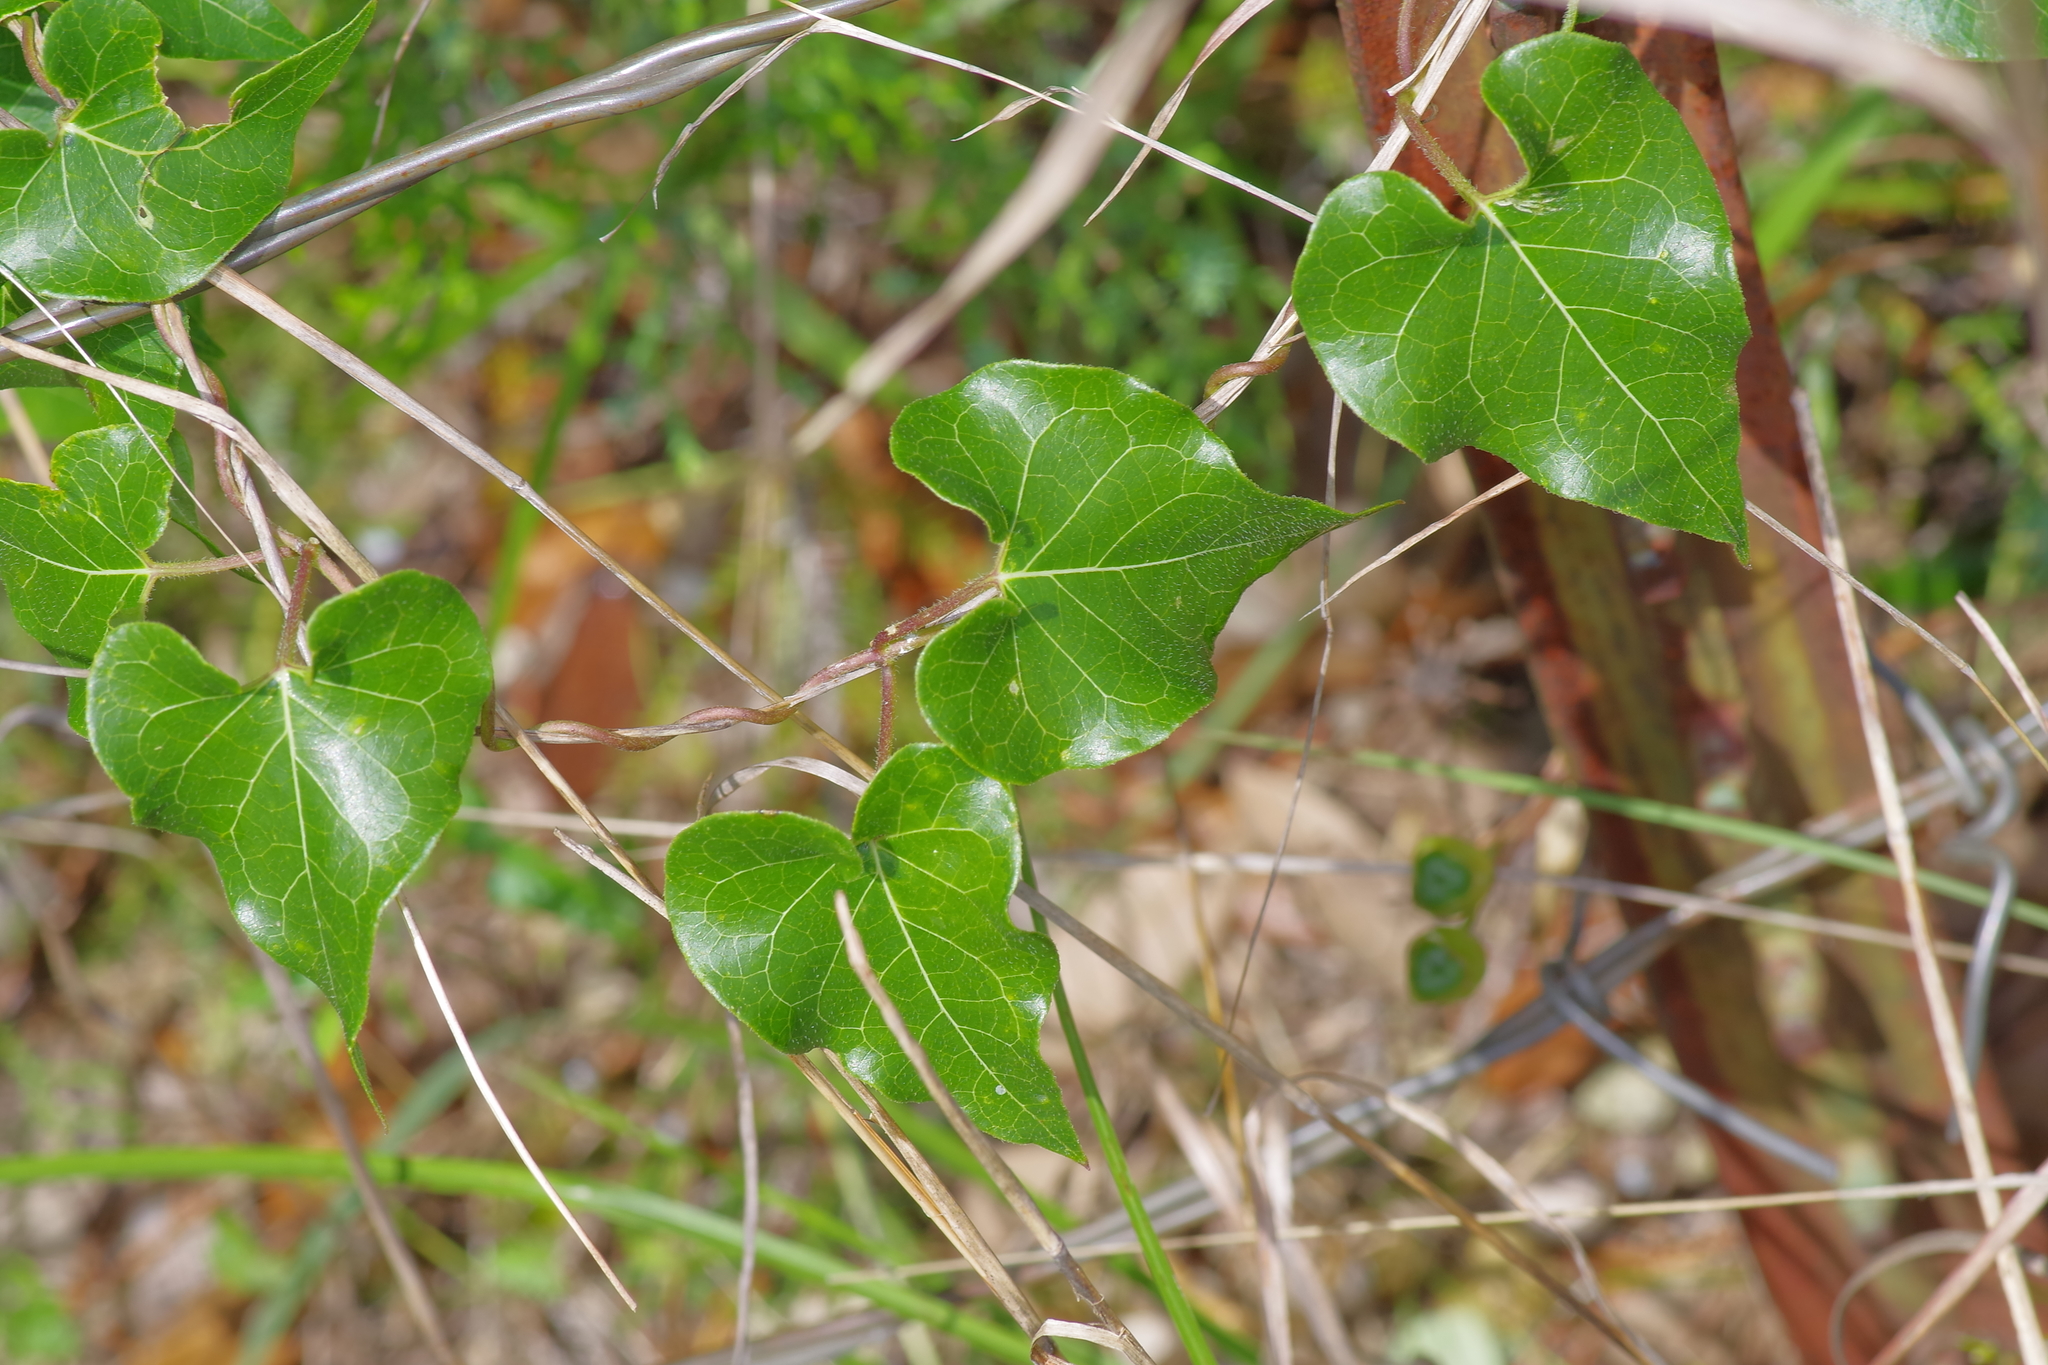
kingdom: Plantae
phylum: Tracheophyta
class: Magnoliopsida
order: Gentianales
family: Apocynaceae
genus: Matelea
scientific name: Matelea edwardsensis
